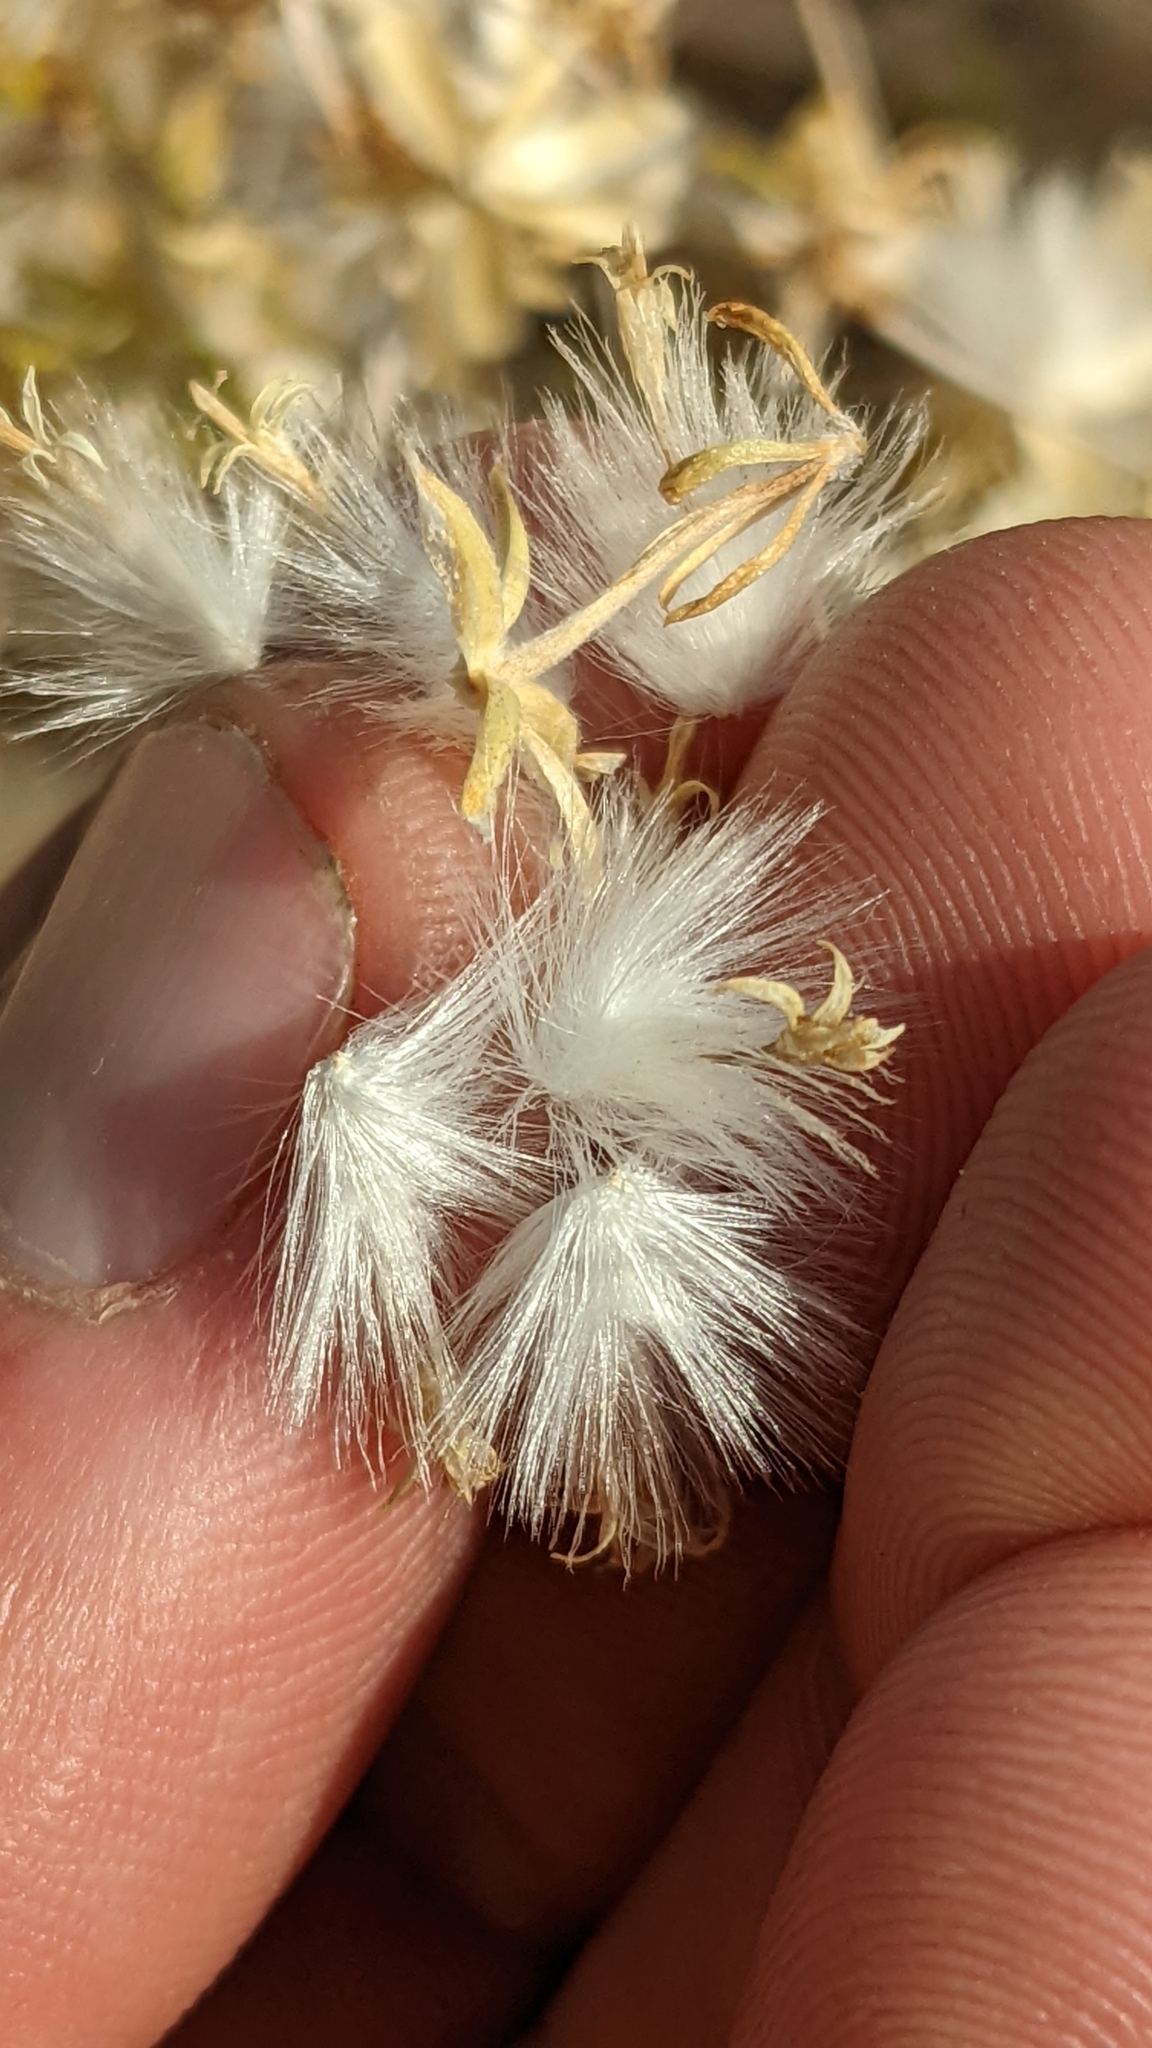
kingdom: Plantae
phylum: Tracheophyta
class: Magnoliopsida
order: Asterales
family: Asteraceae
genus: Tetradymia
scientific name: Tetradymia axillaris
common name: Long-spine horsebrush
